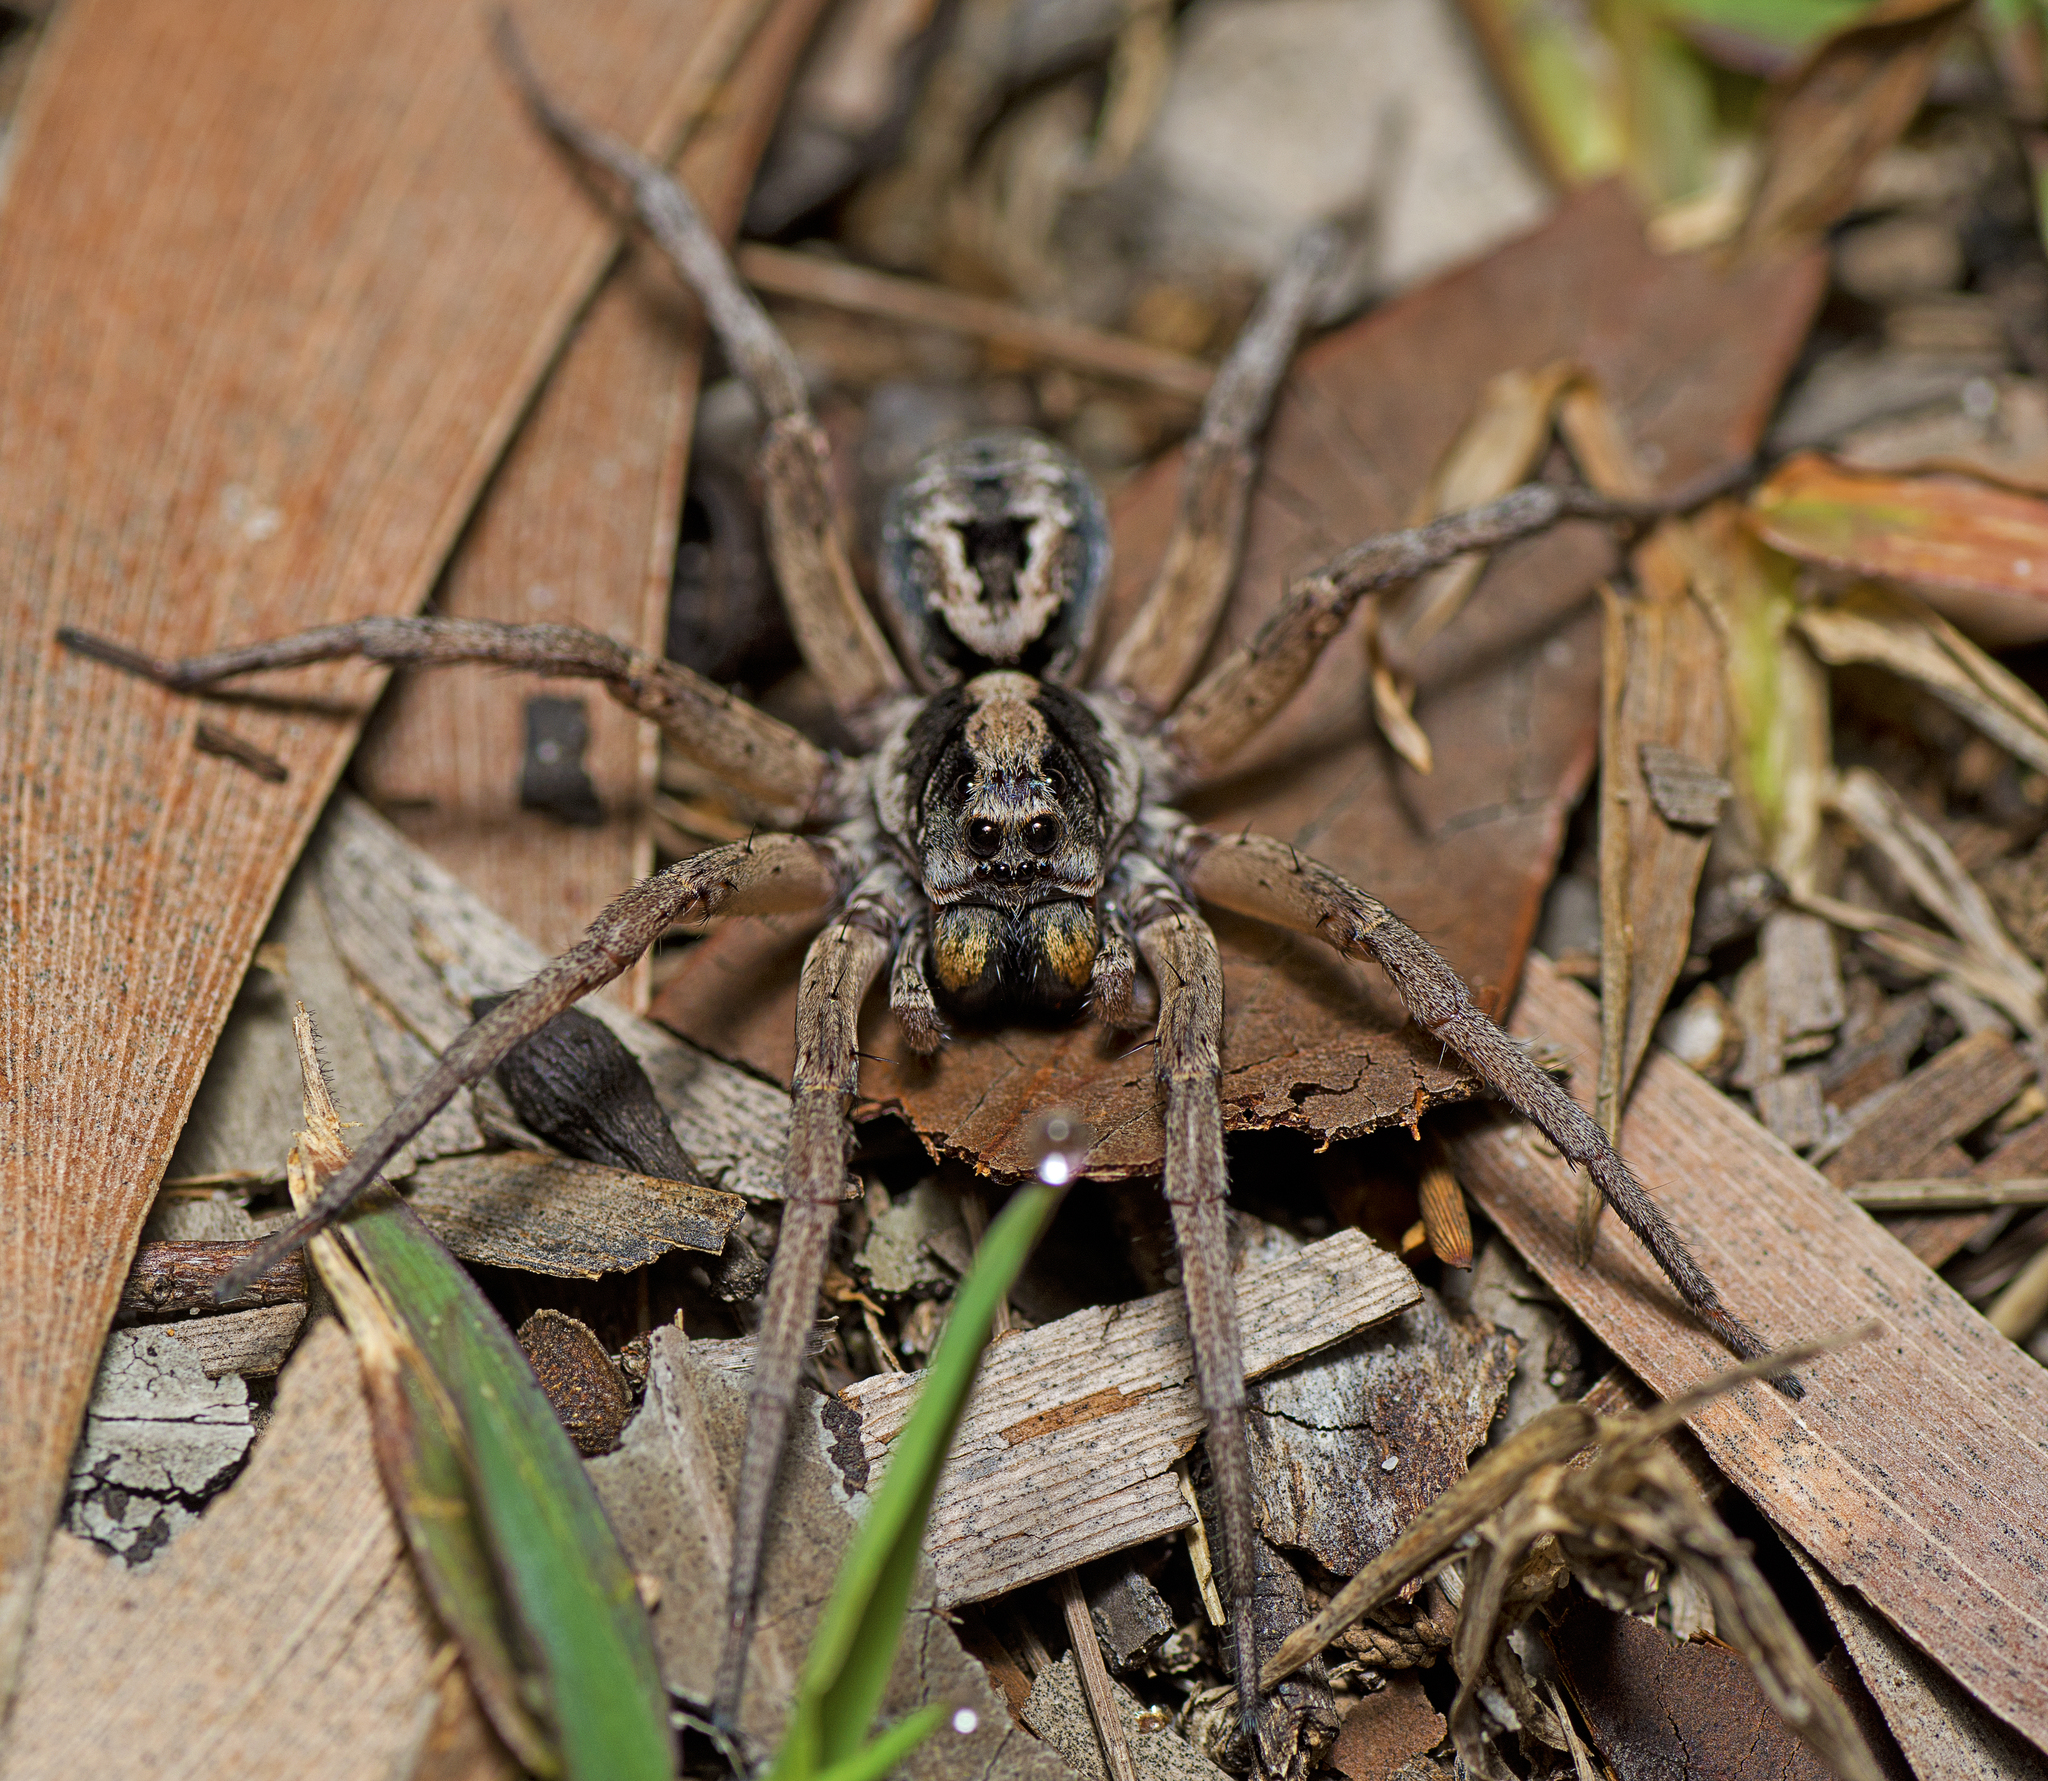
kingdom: Animalia
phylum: Arthropoda
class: Arachnida
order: Araneae
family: Lycosidae
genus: Venator
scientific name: Venator spenceri
